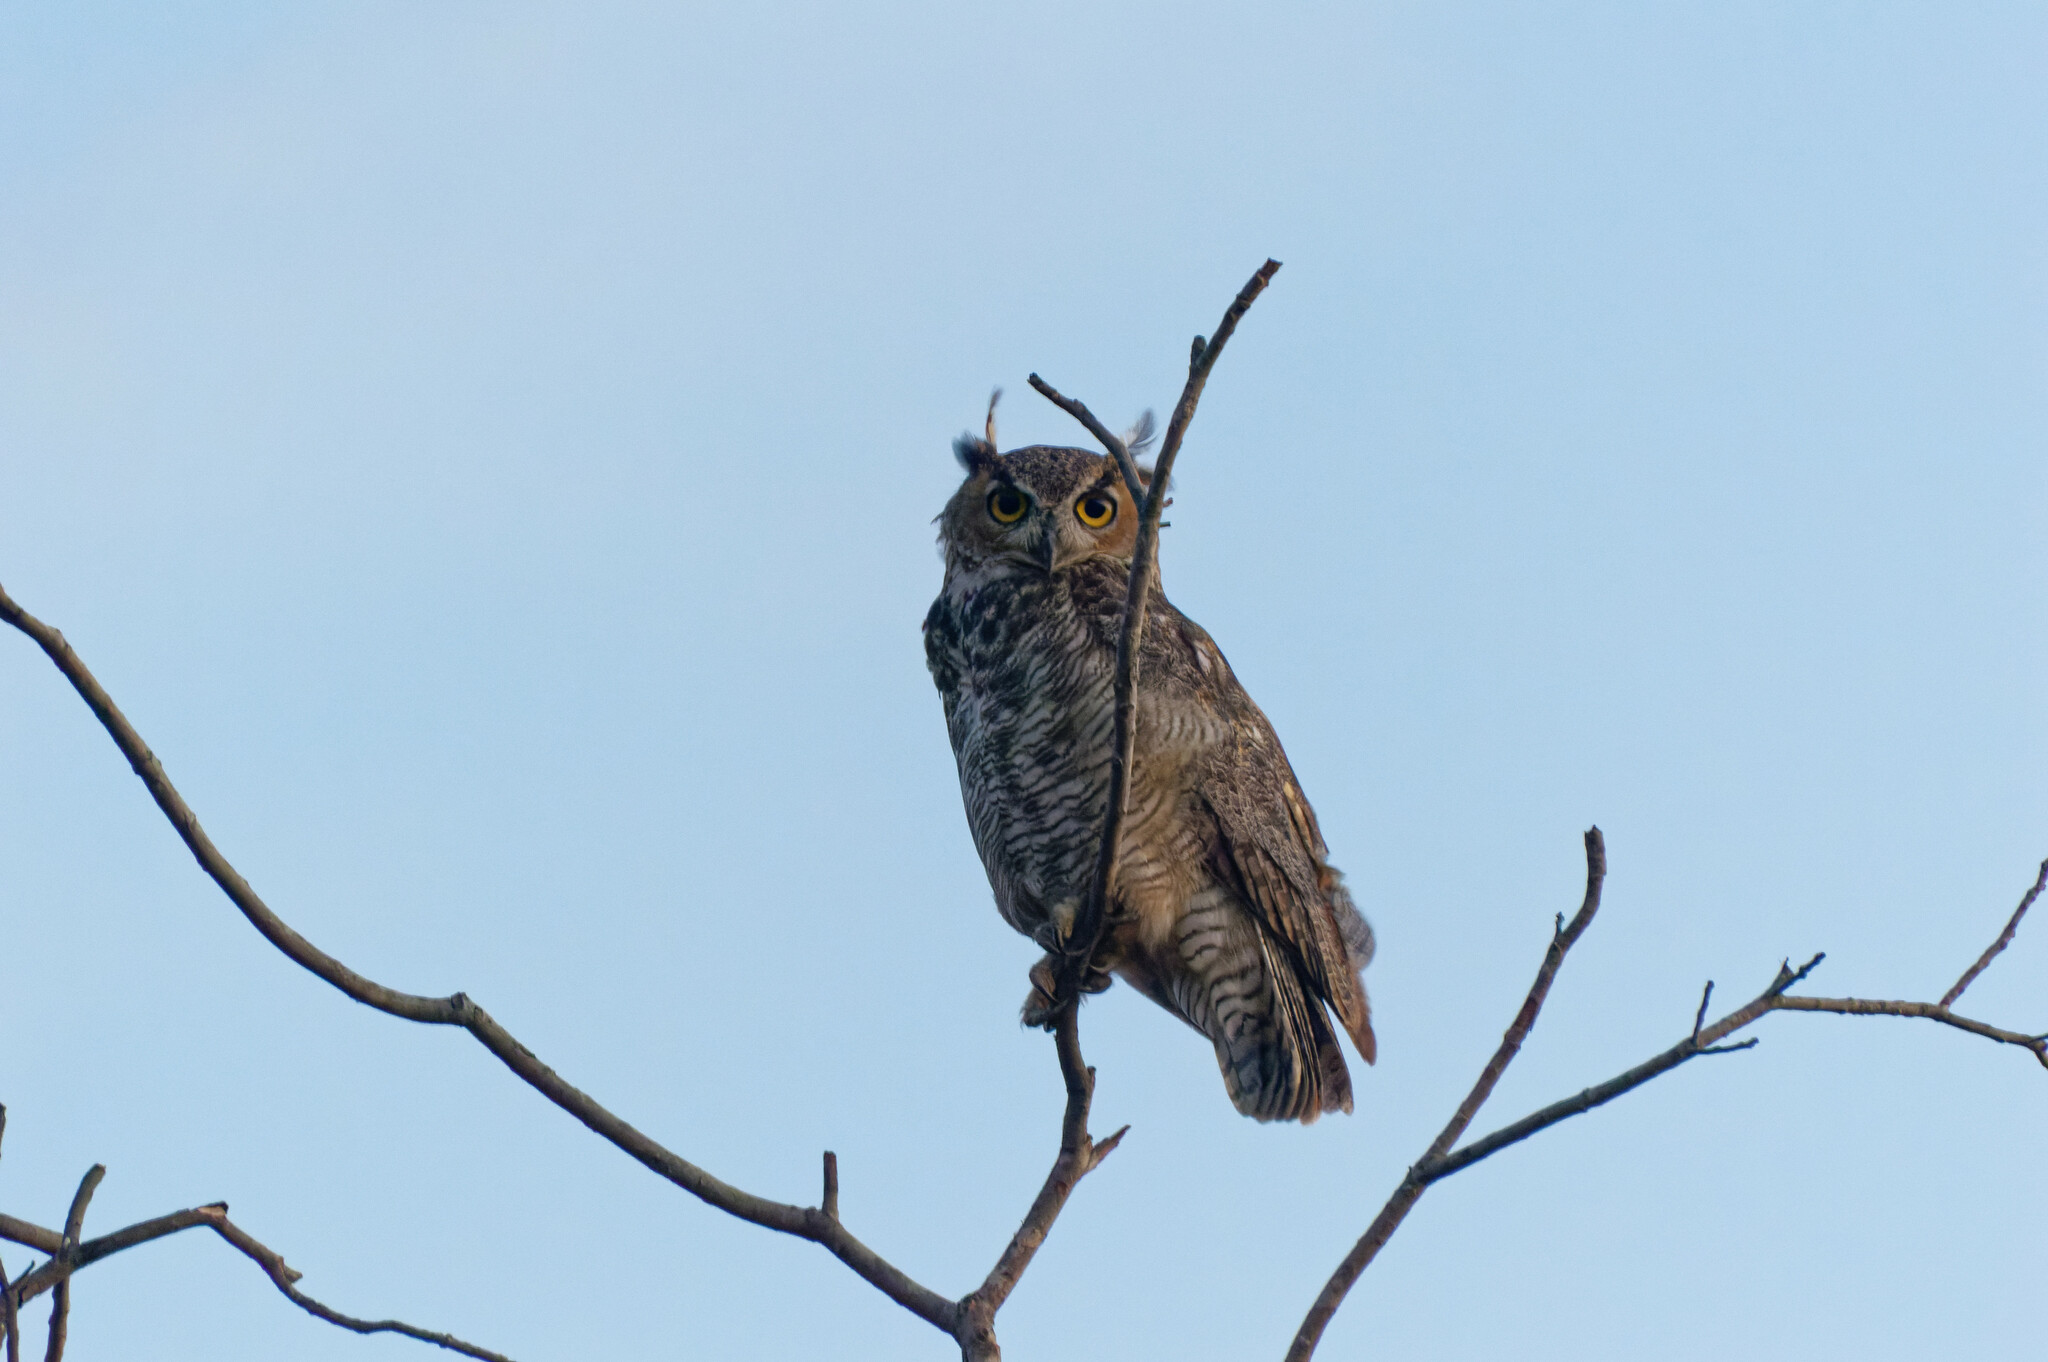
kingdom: Animalia
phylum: Chordata
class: Aves
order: Strigiformes
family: Strigidae
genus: Bubo
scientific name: Bubo virginianus
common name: Great horned owl
